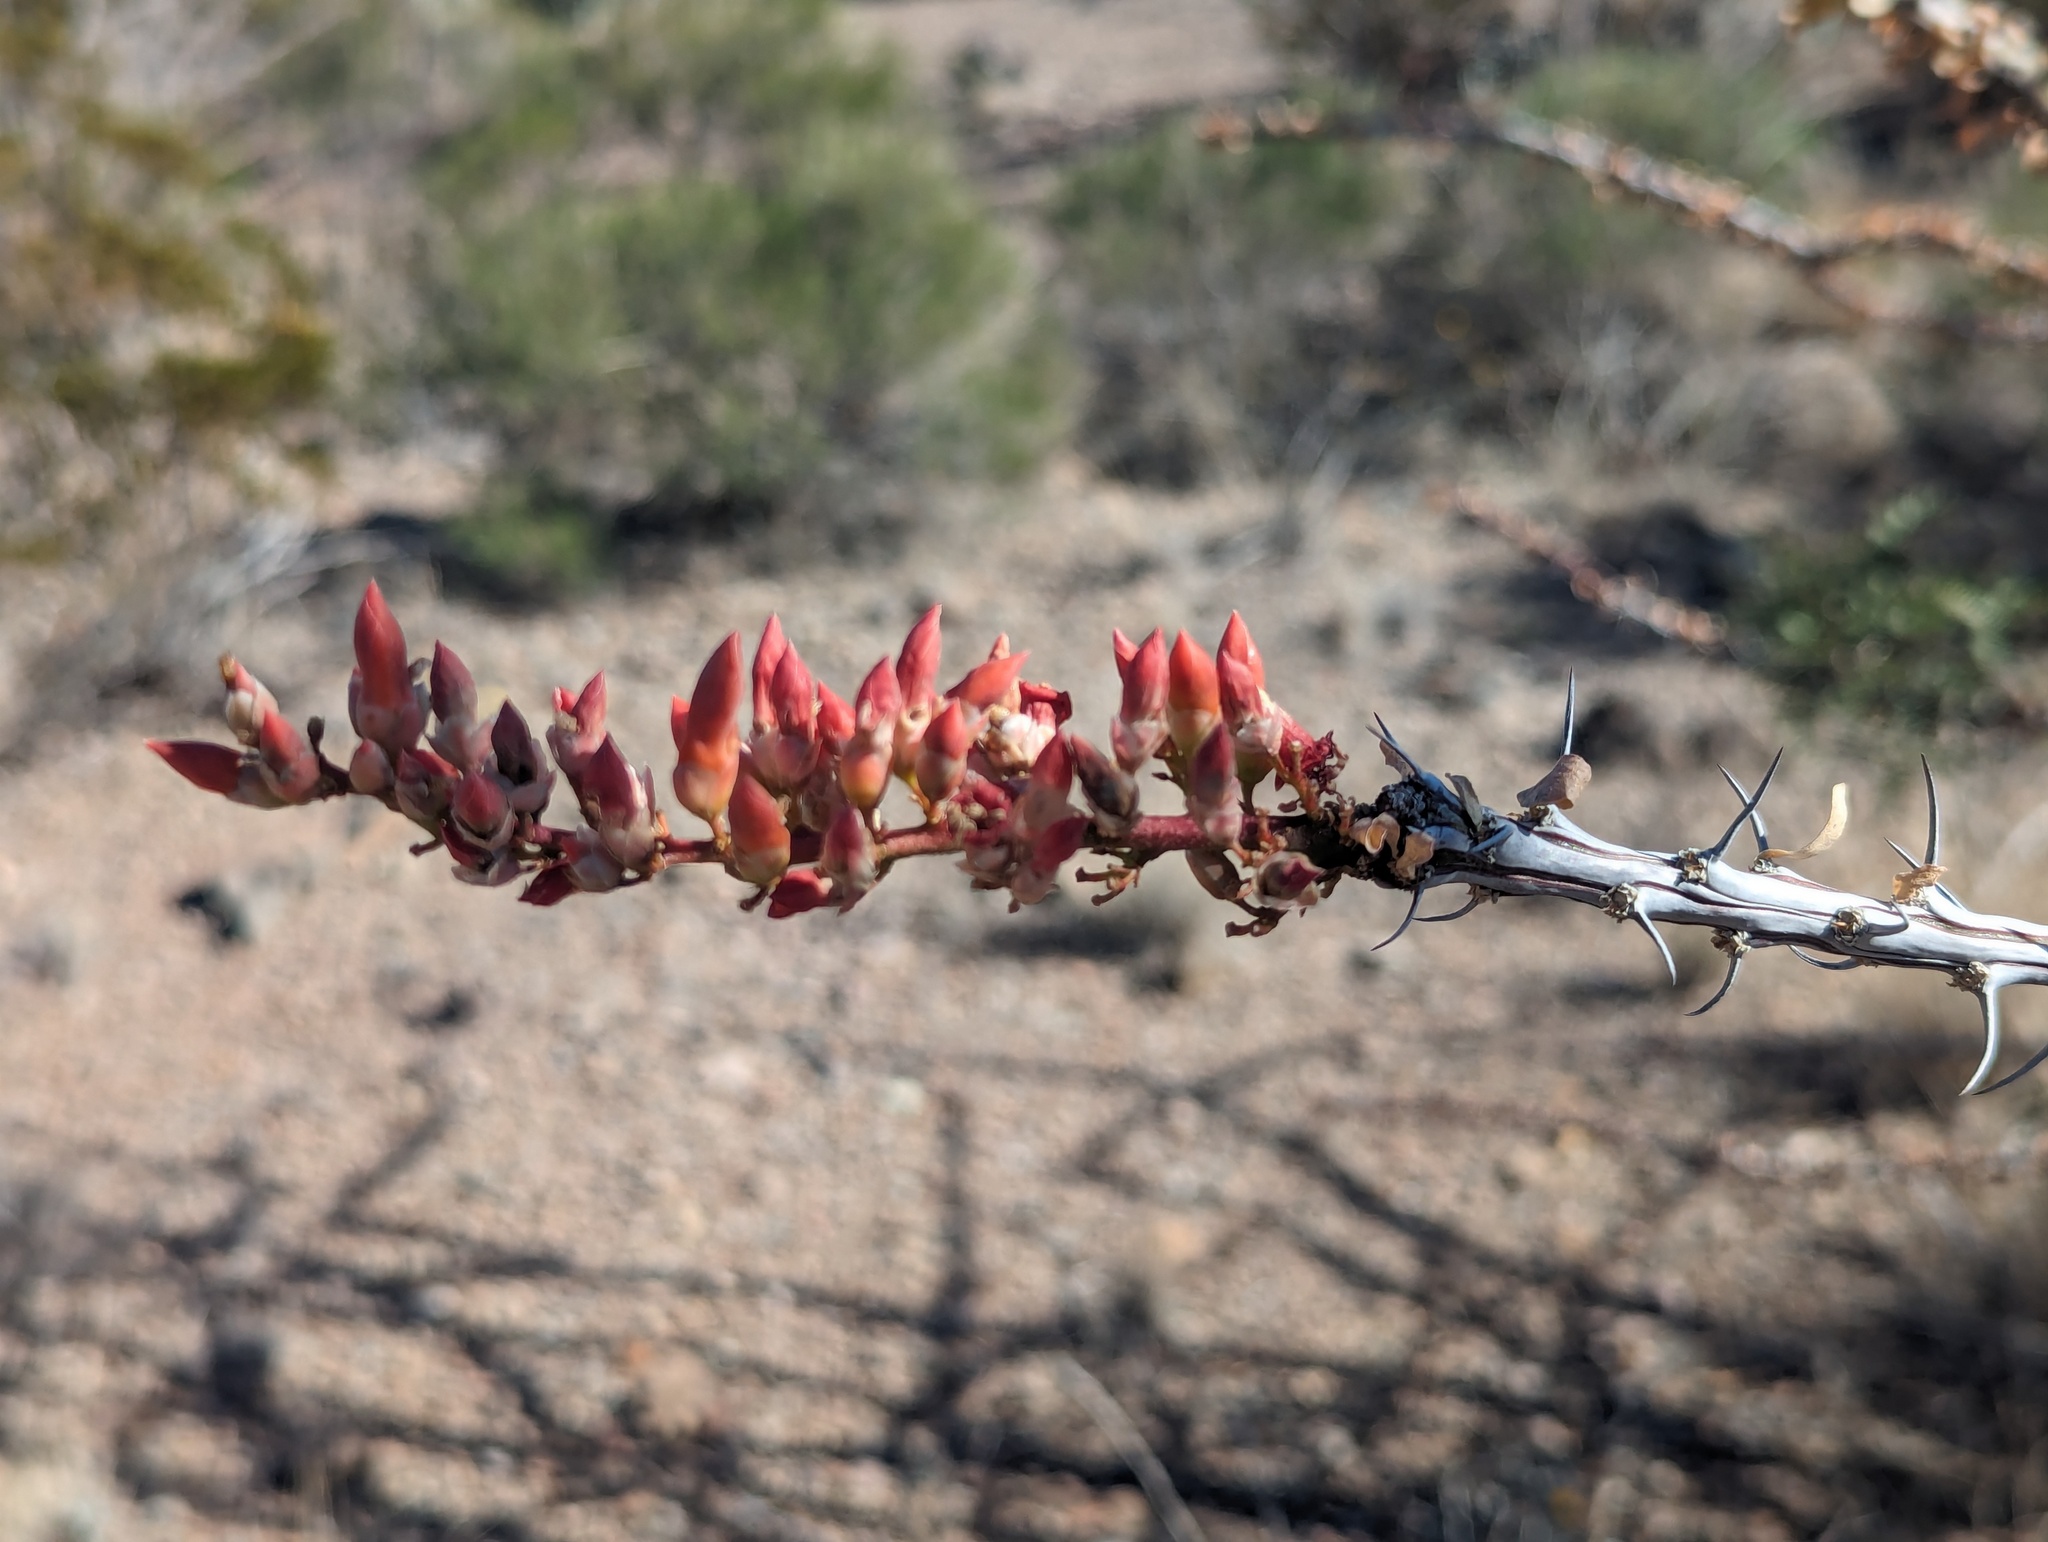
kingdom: Plantae
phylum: Tracheophyta
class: Magnoliopsida
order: Ericales
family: Fouquieriaceae
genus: Fouquieria
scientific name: Fouquieria splendens
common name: Vine-cactus
